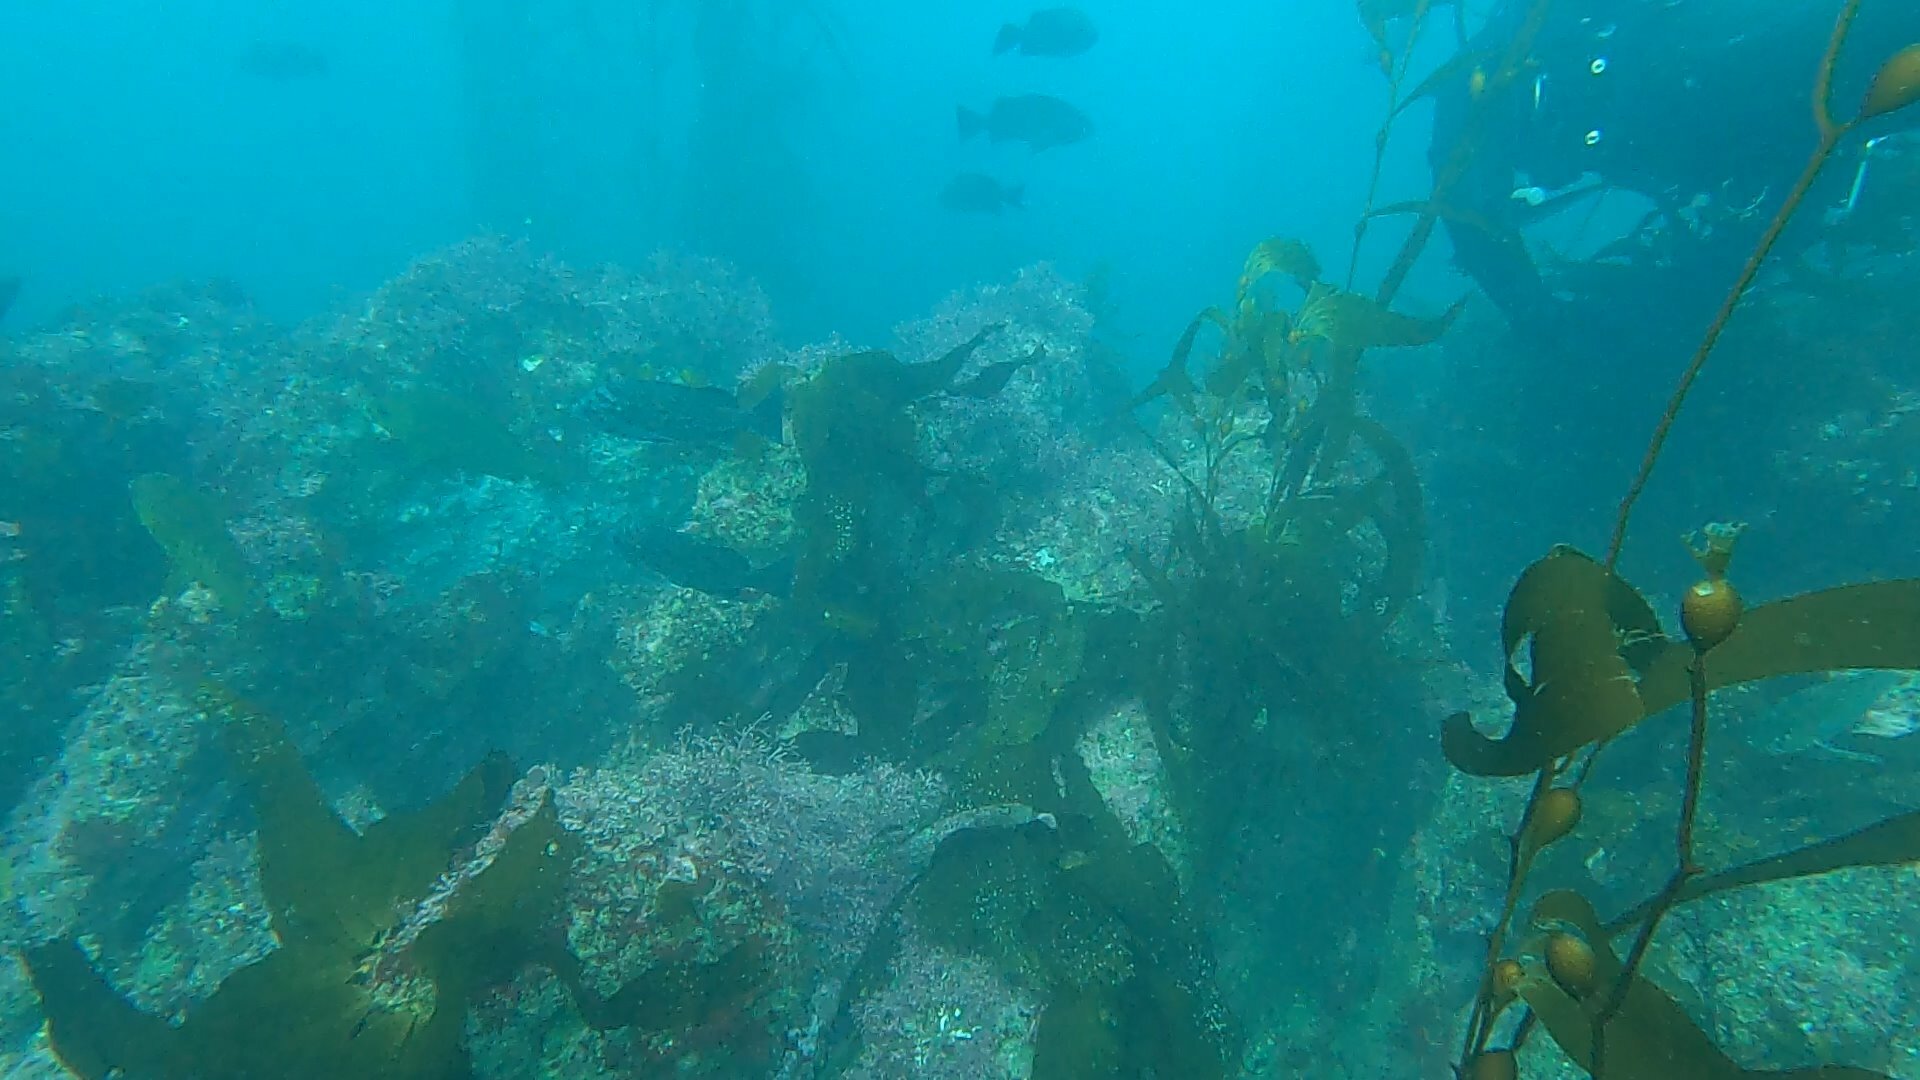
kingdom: Chromista
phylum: Ochrophyta
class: Phaeophyceae
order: Laminariales
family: Laminariaceae
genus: Macrocystis
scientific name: Macrocystis pyrifera
